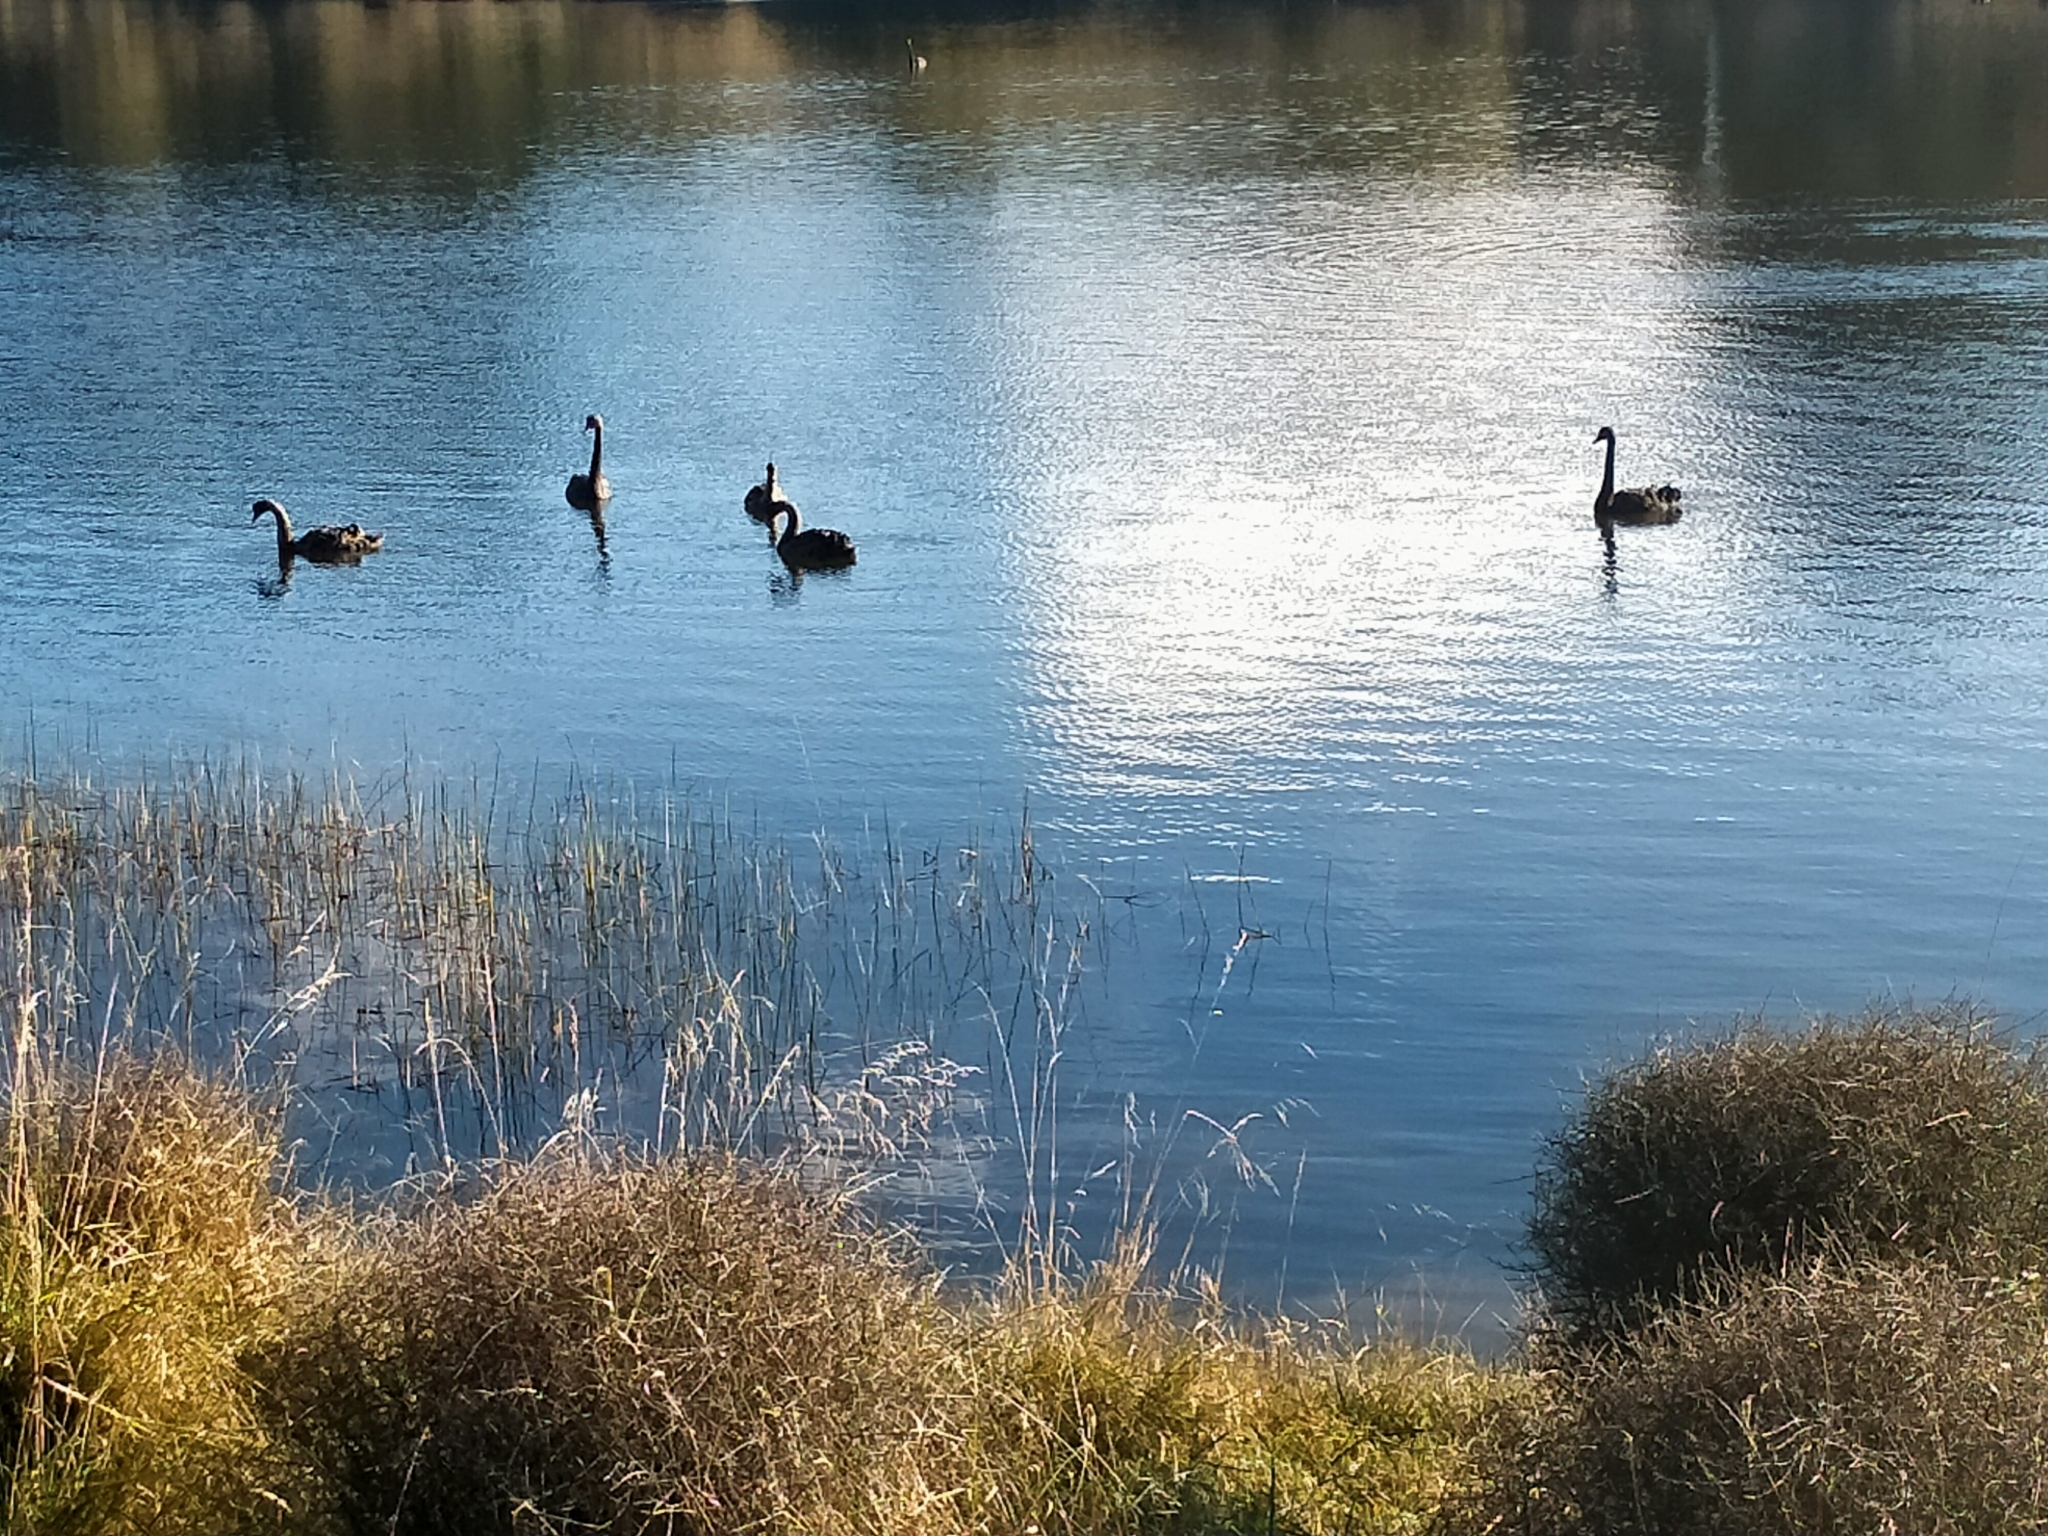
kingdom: Animalia
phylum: Chordata
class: Aves
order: Anseriformes
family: Anatidae
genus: Cygnus
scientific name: Cygnus atratus
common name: Black swan
